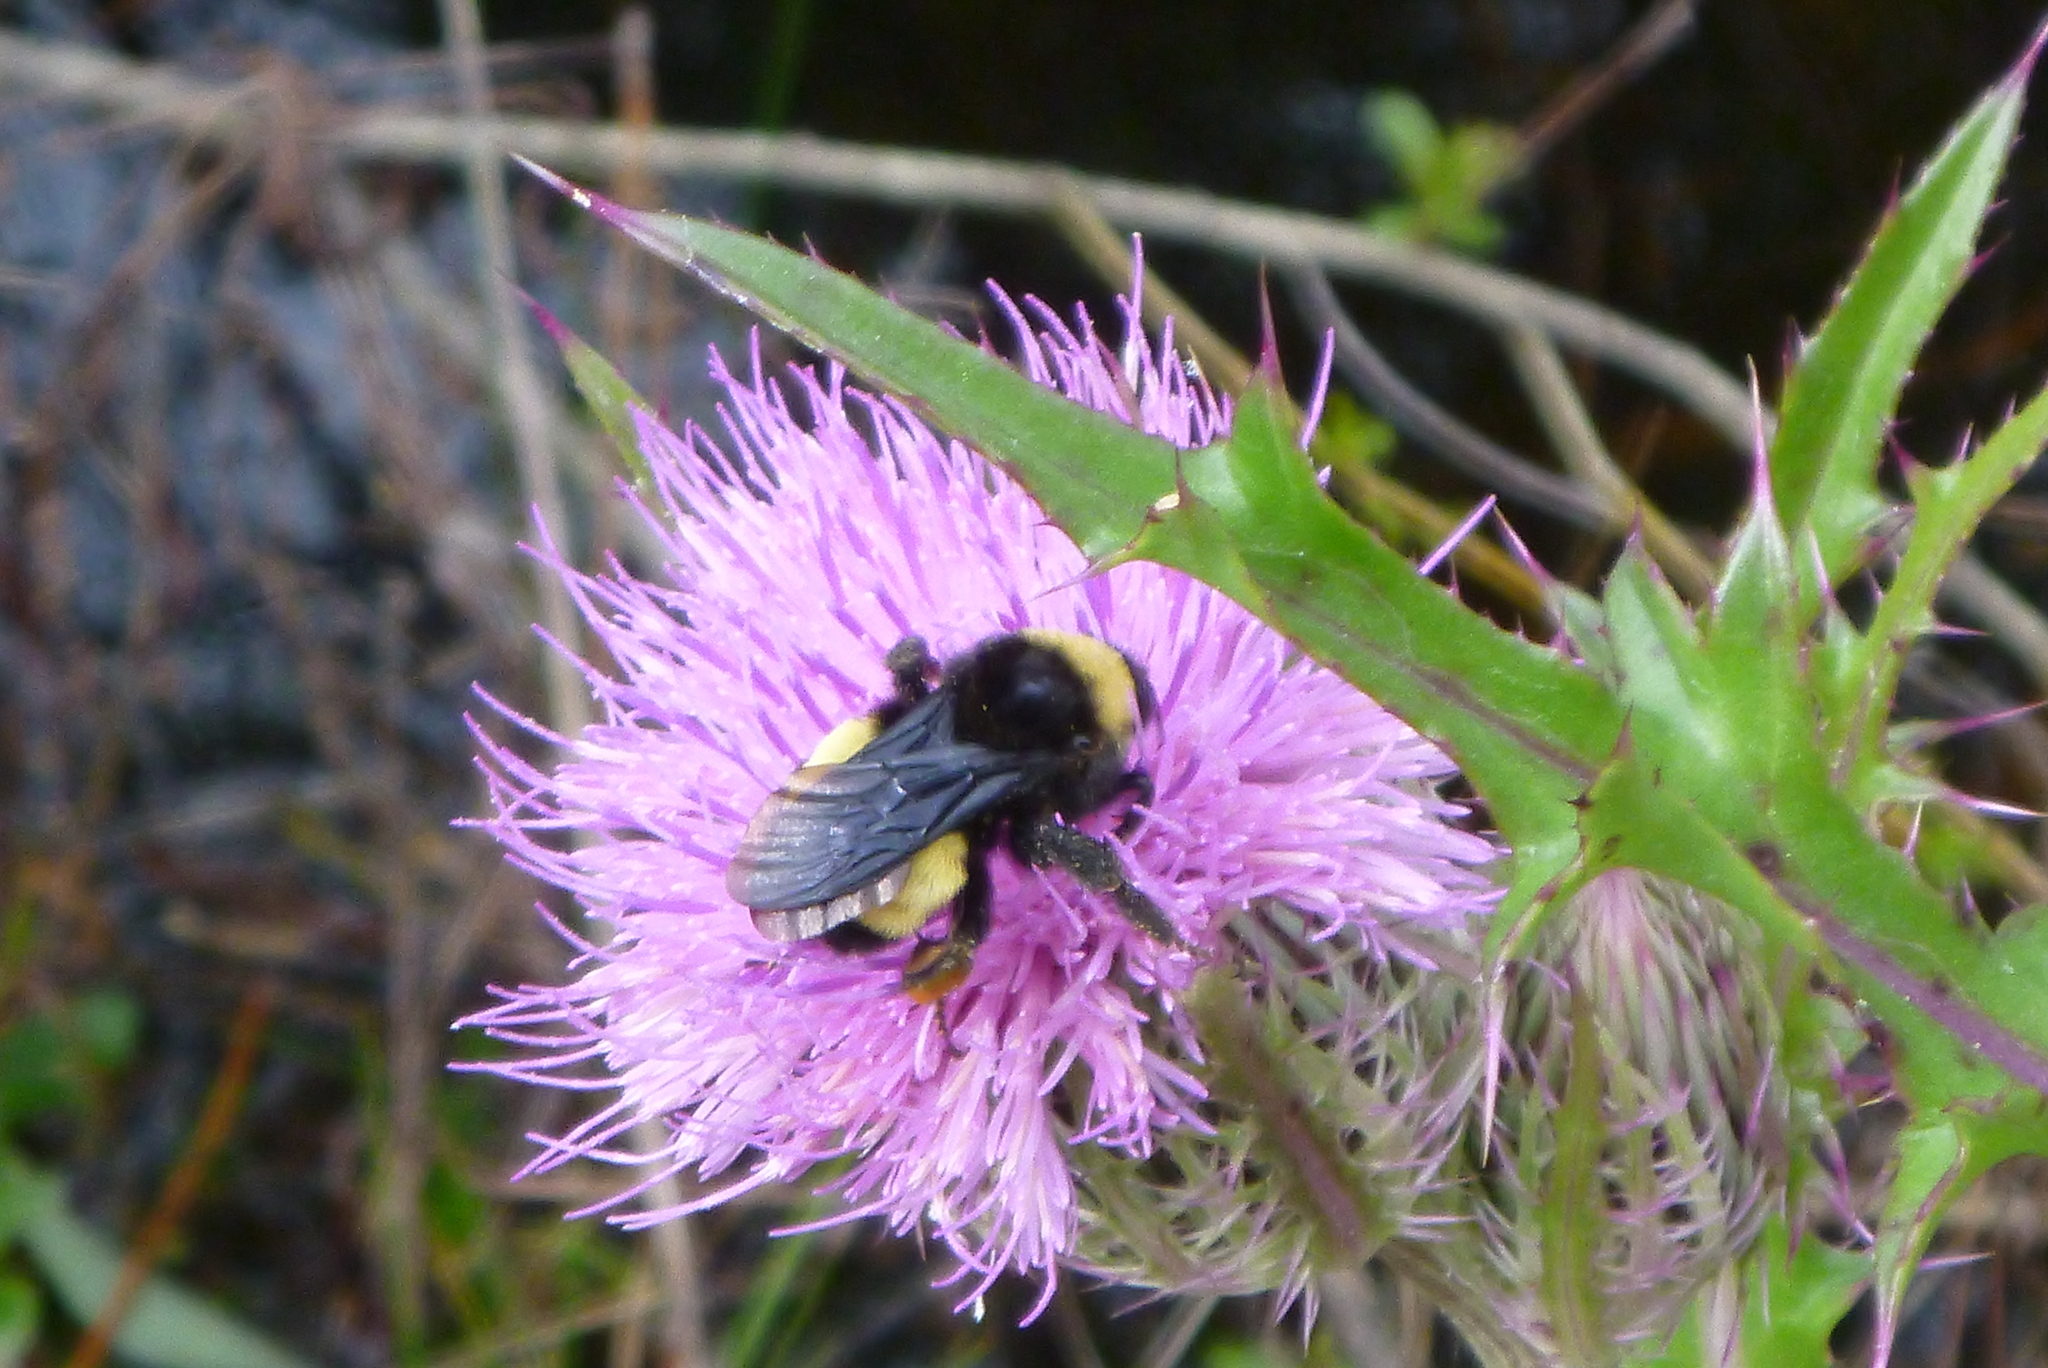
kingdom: Animalia
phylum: Arthropoda
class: Insecta
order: Hymenoptera
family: Apidae
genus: Bombus
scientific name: Bombus pensylvanicus
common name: Bumble bee
